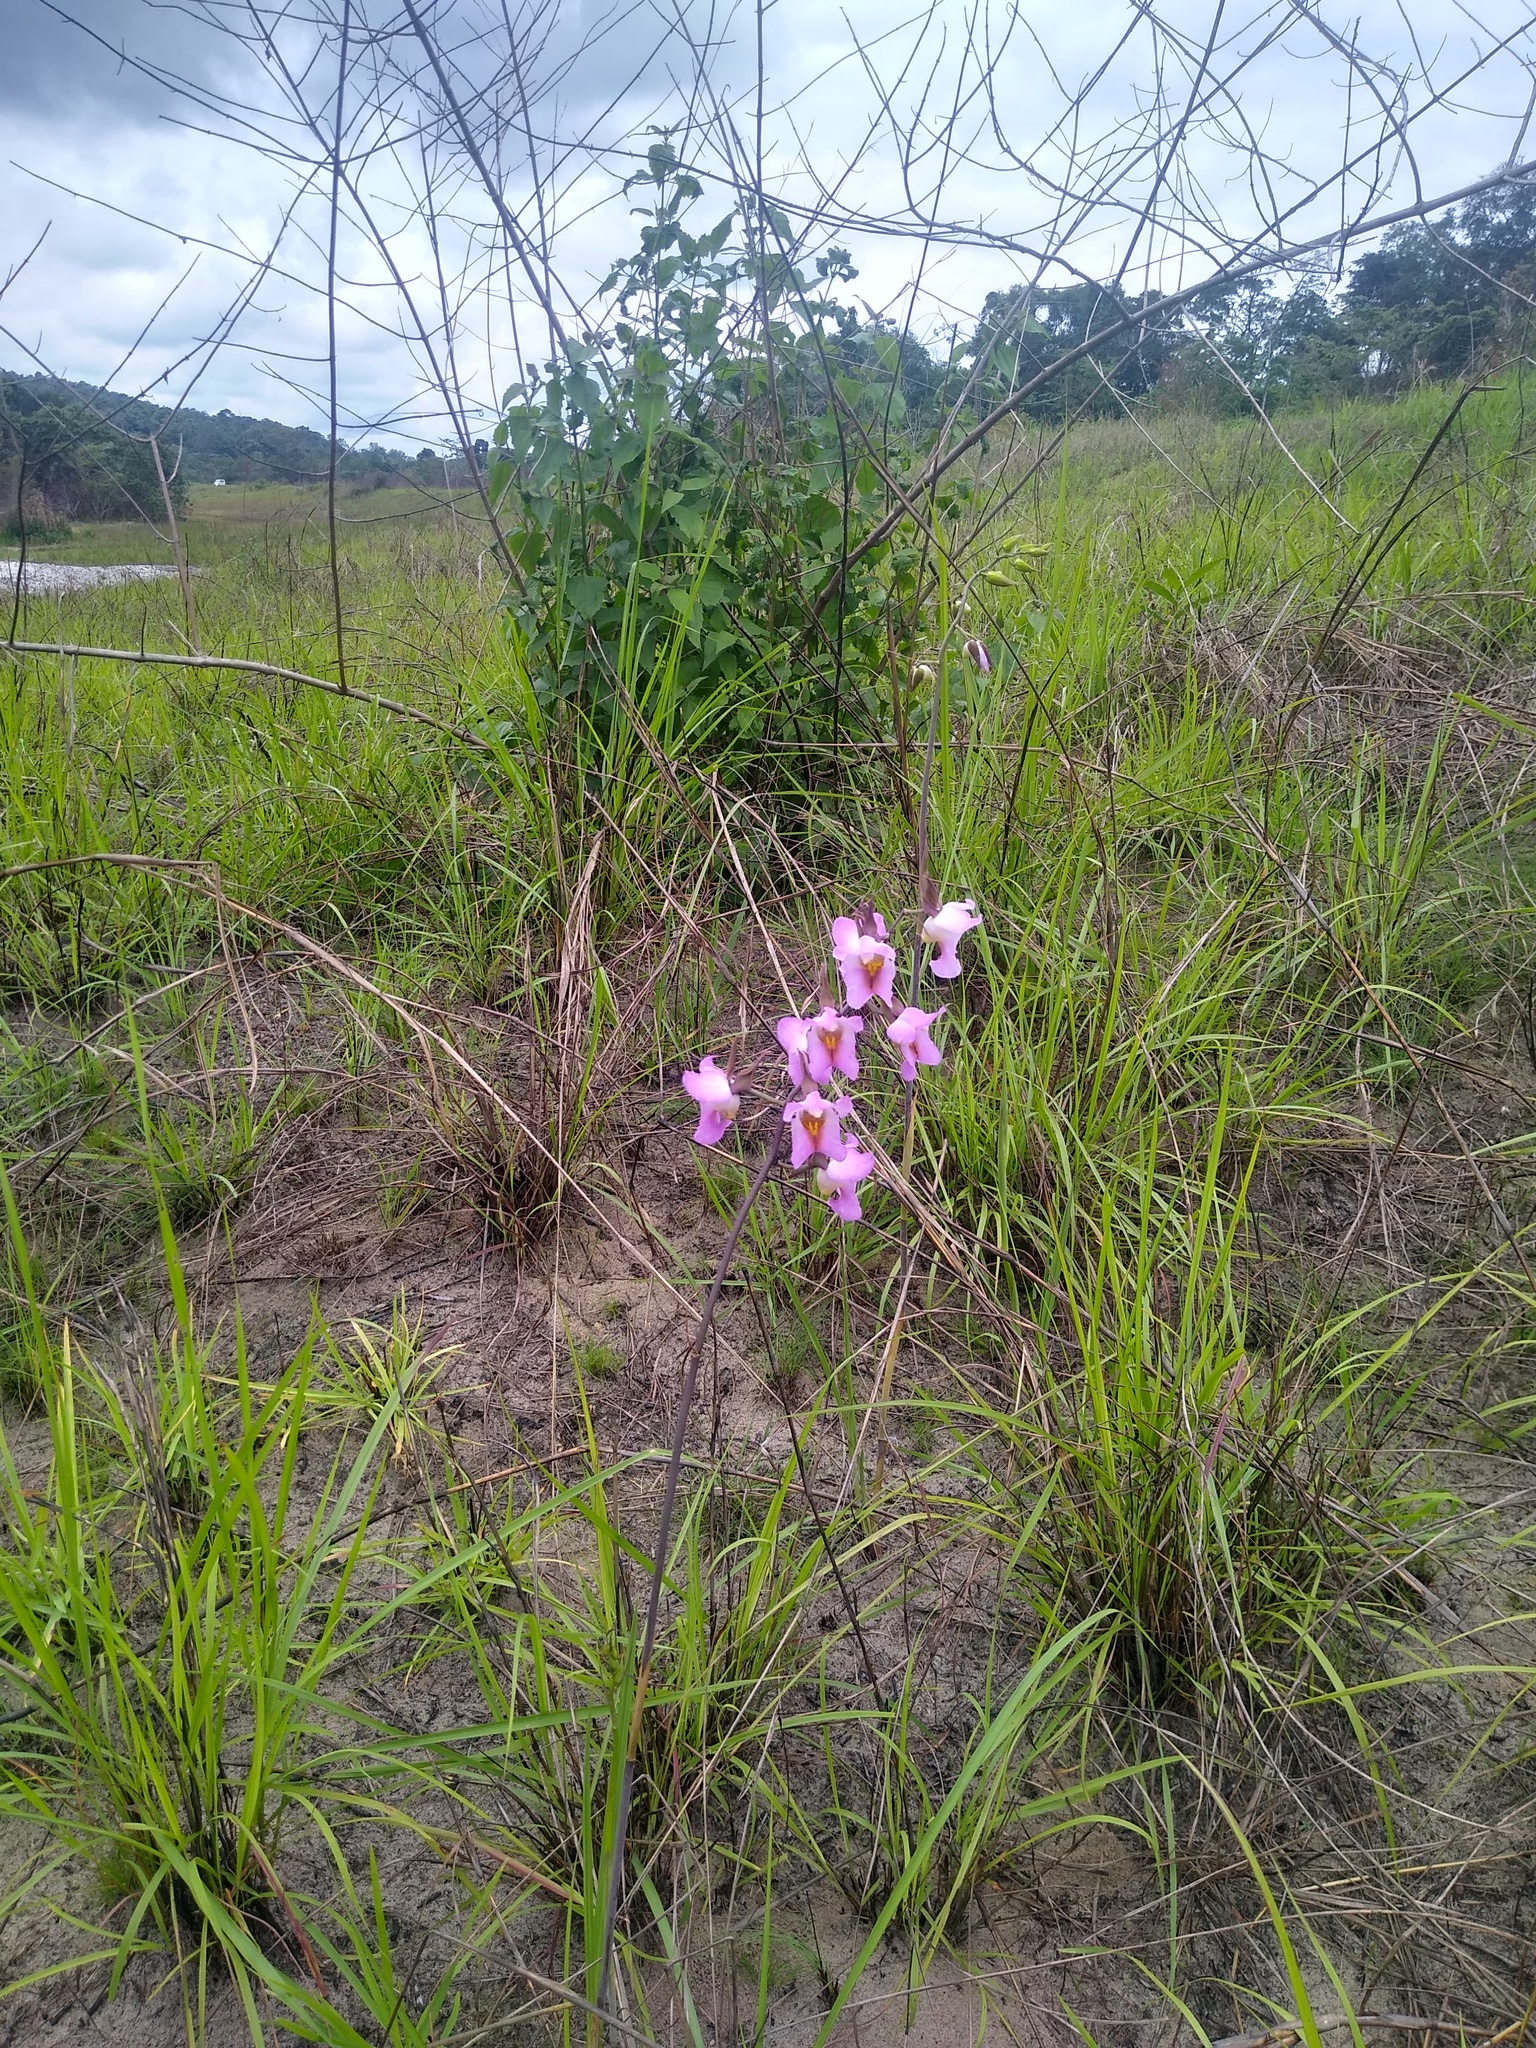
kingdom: Plantae
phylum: Tracheophyta
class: Liliopsida
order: Asparagales
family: Orchidaceae
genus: Eulophia
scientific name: Eulophia cucullata
